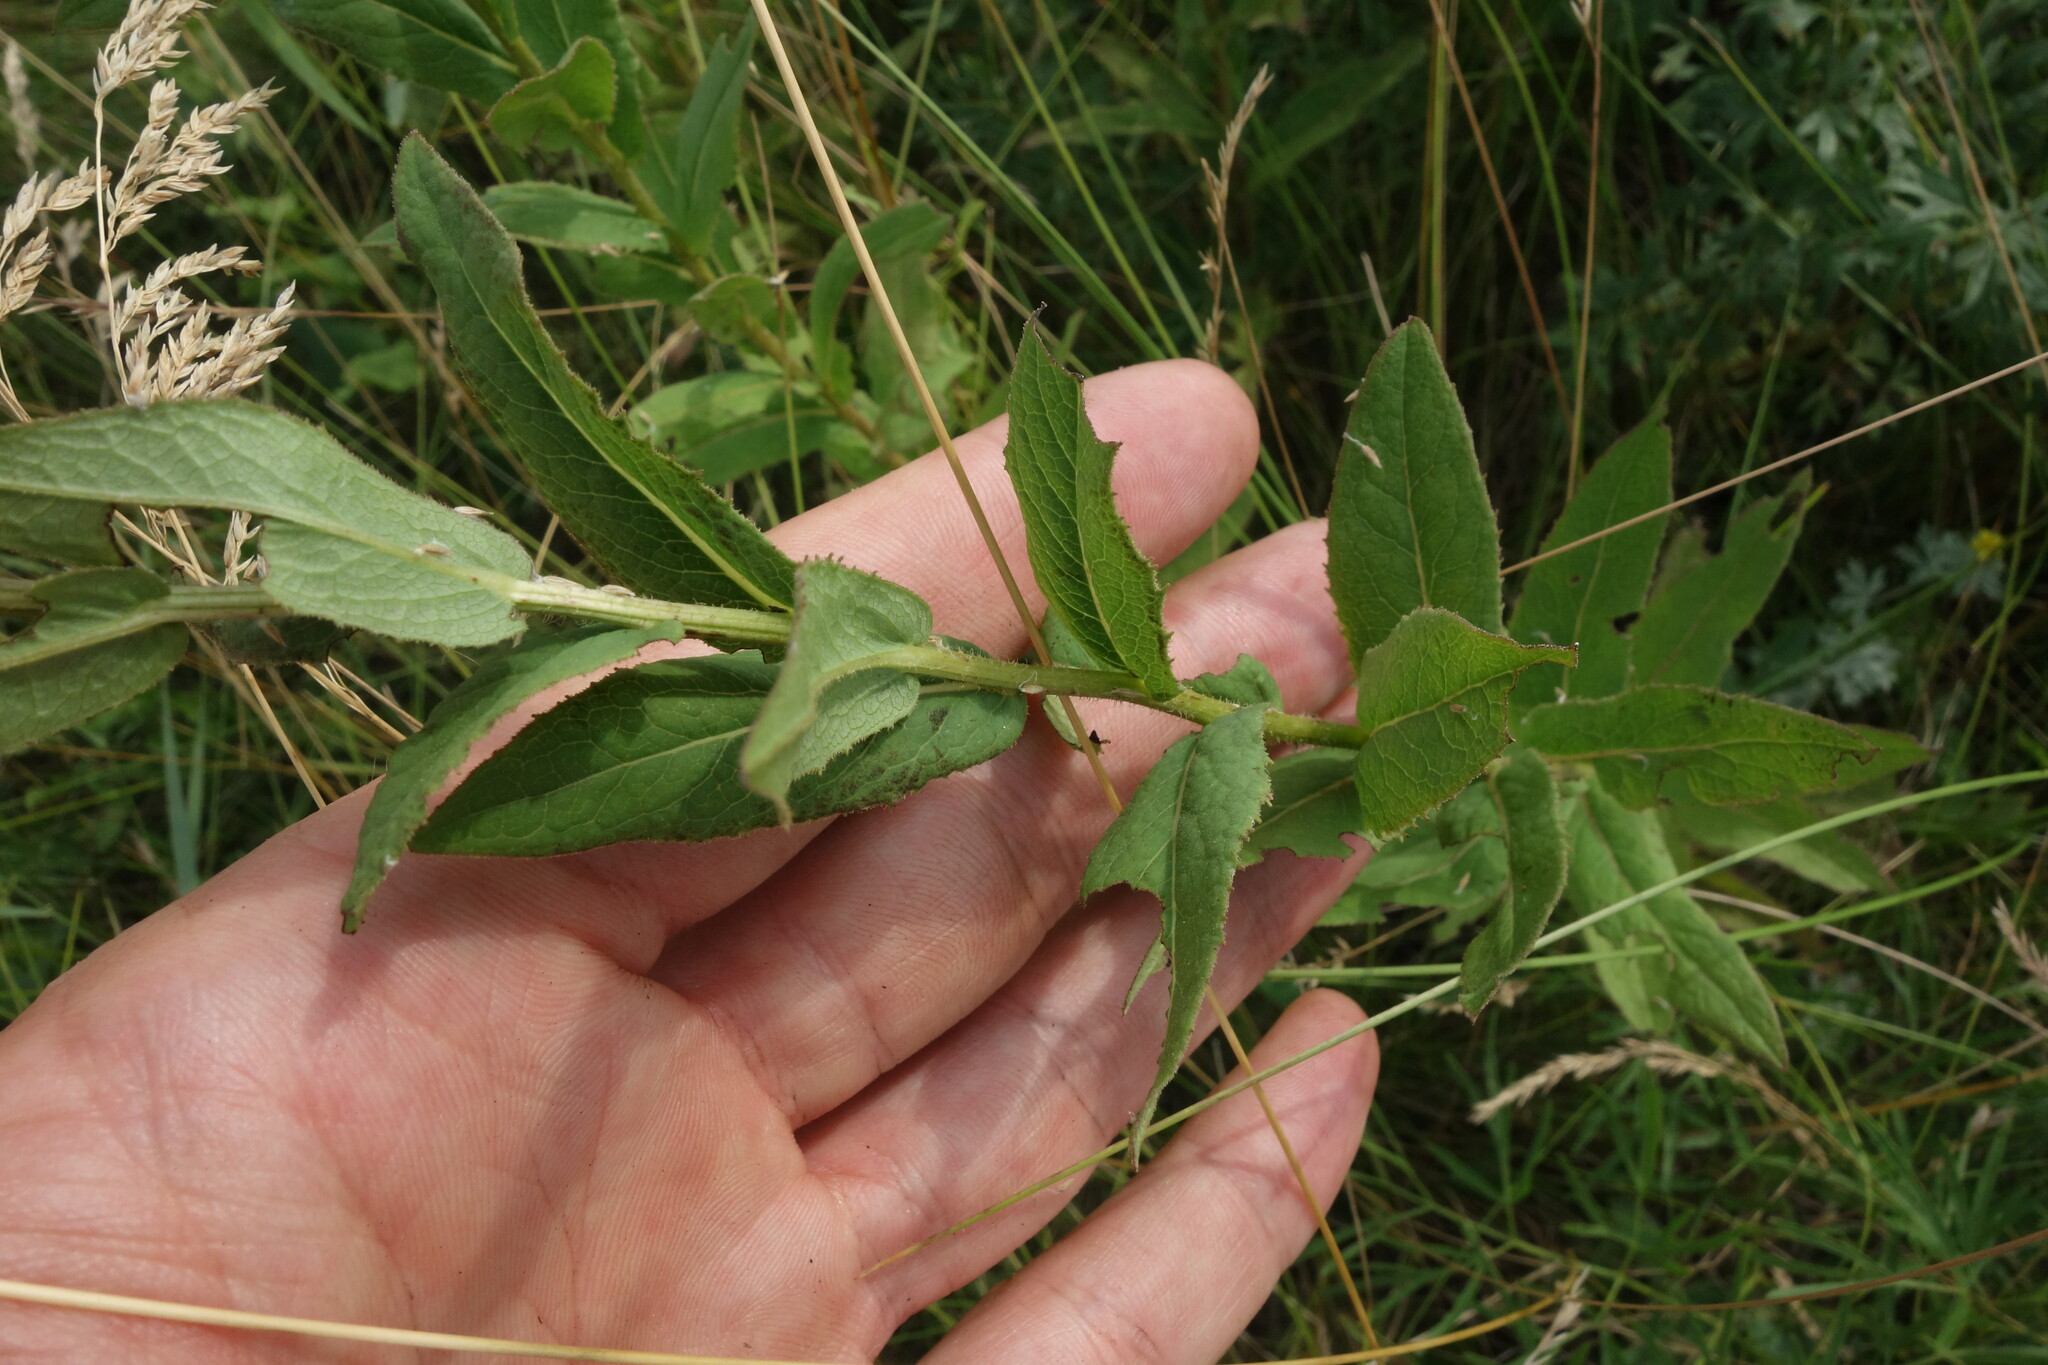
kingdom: Plantae
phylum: Tracheophyta
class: Magnoliopsida
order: Asterales
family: Asteraceae
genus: Pentanema
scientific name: Pentanema salicinum
